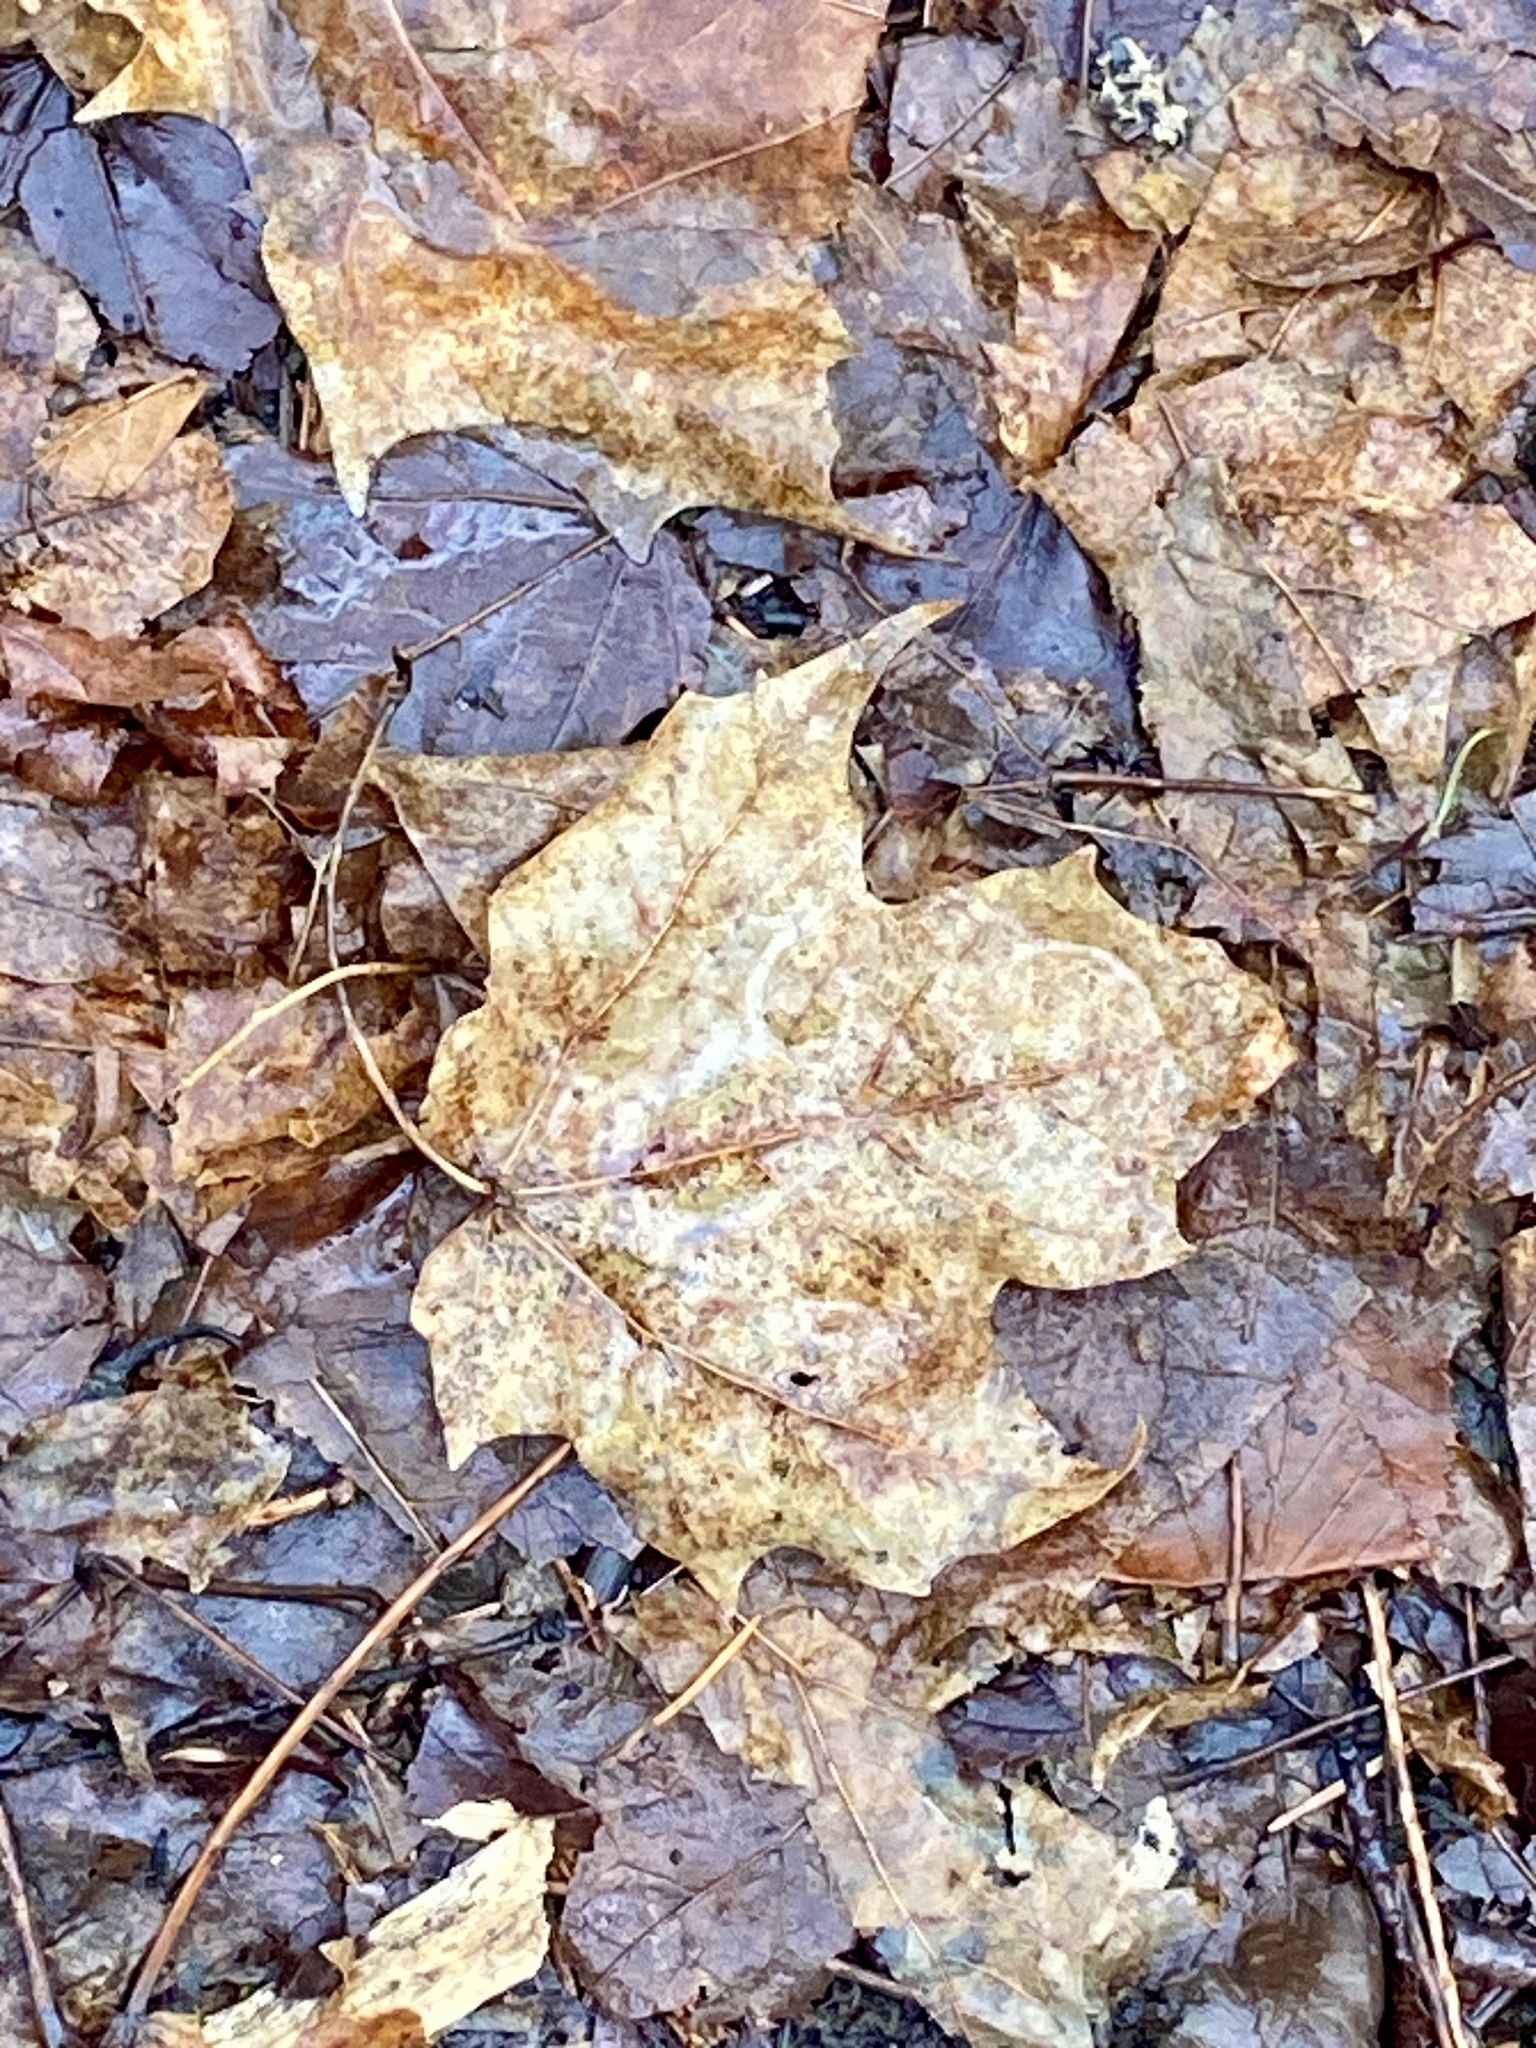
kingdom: Plantae
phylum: Tracheophyta
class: Magnoliopsida
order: Sapindales
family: Sapindaceae
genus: Acer
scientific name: Acer saccharum
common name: Sugar maple
